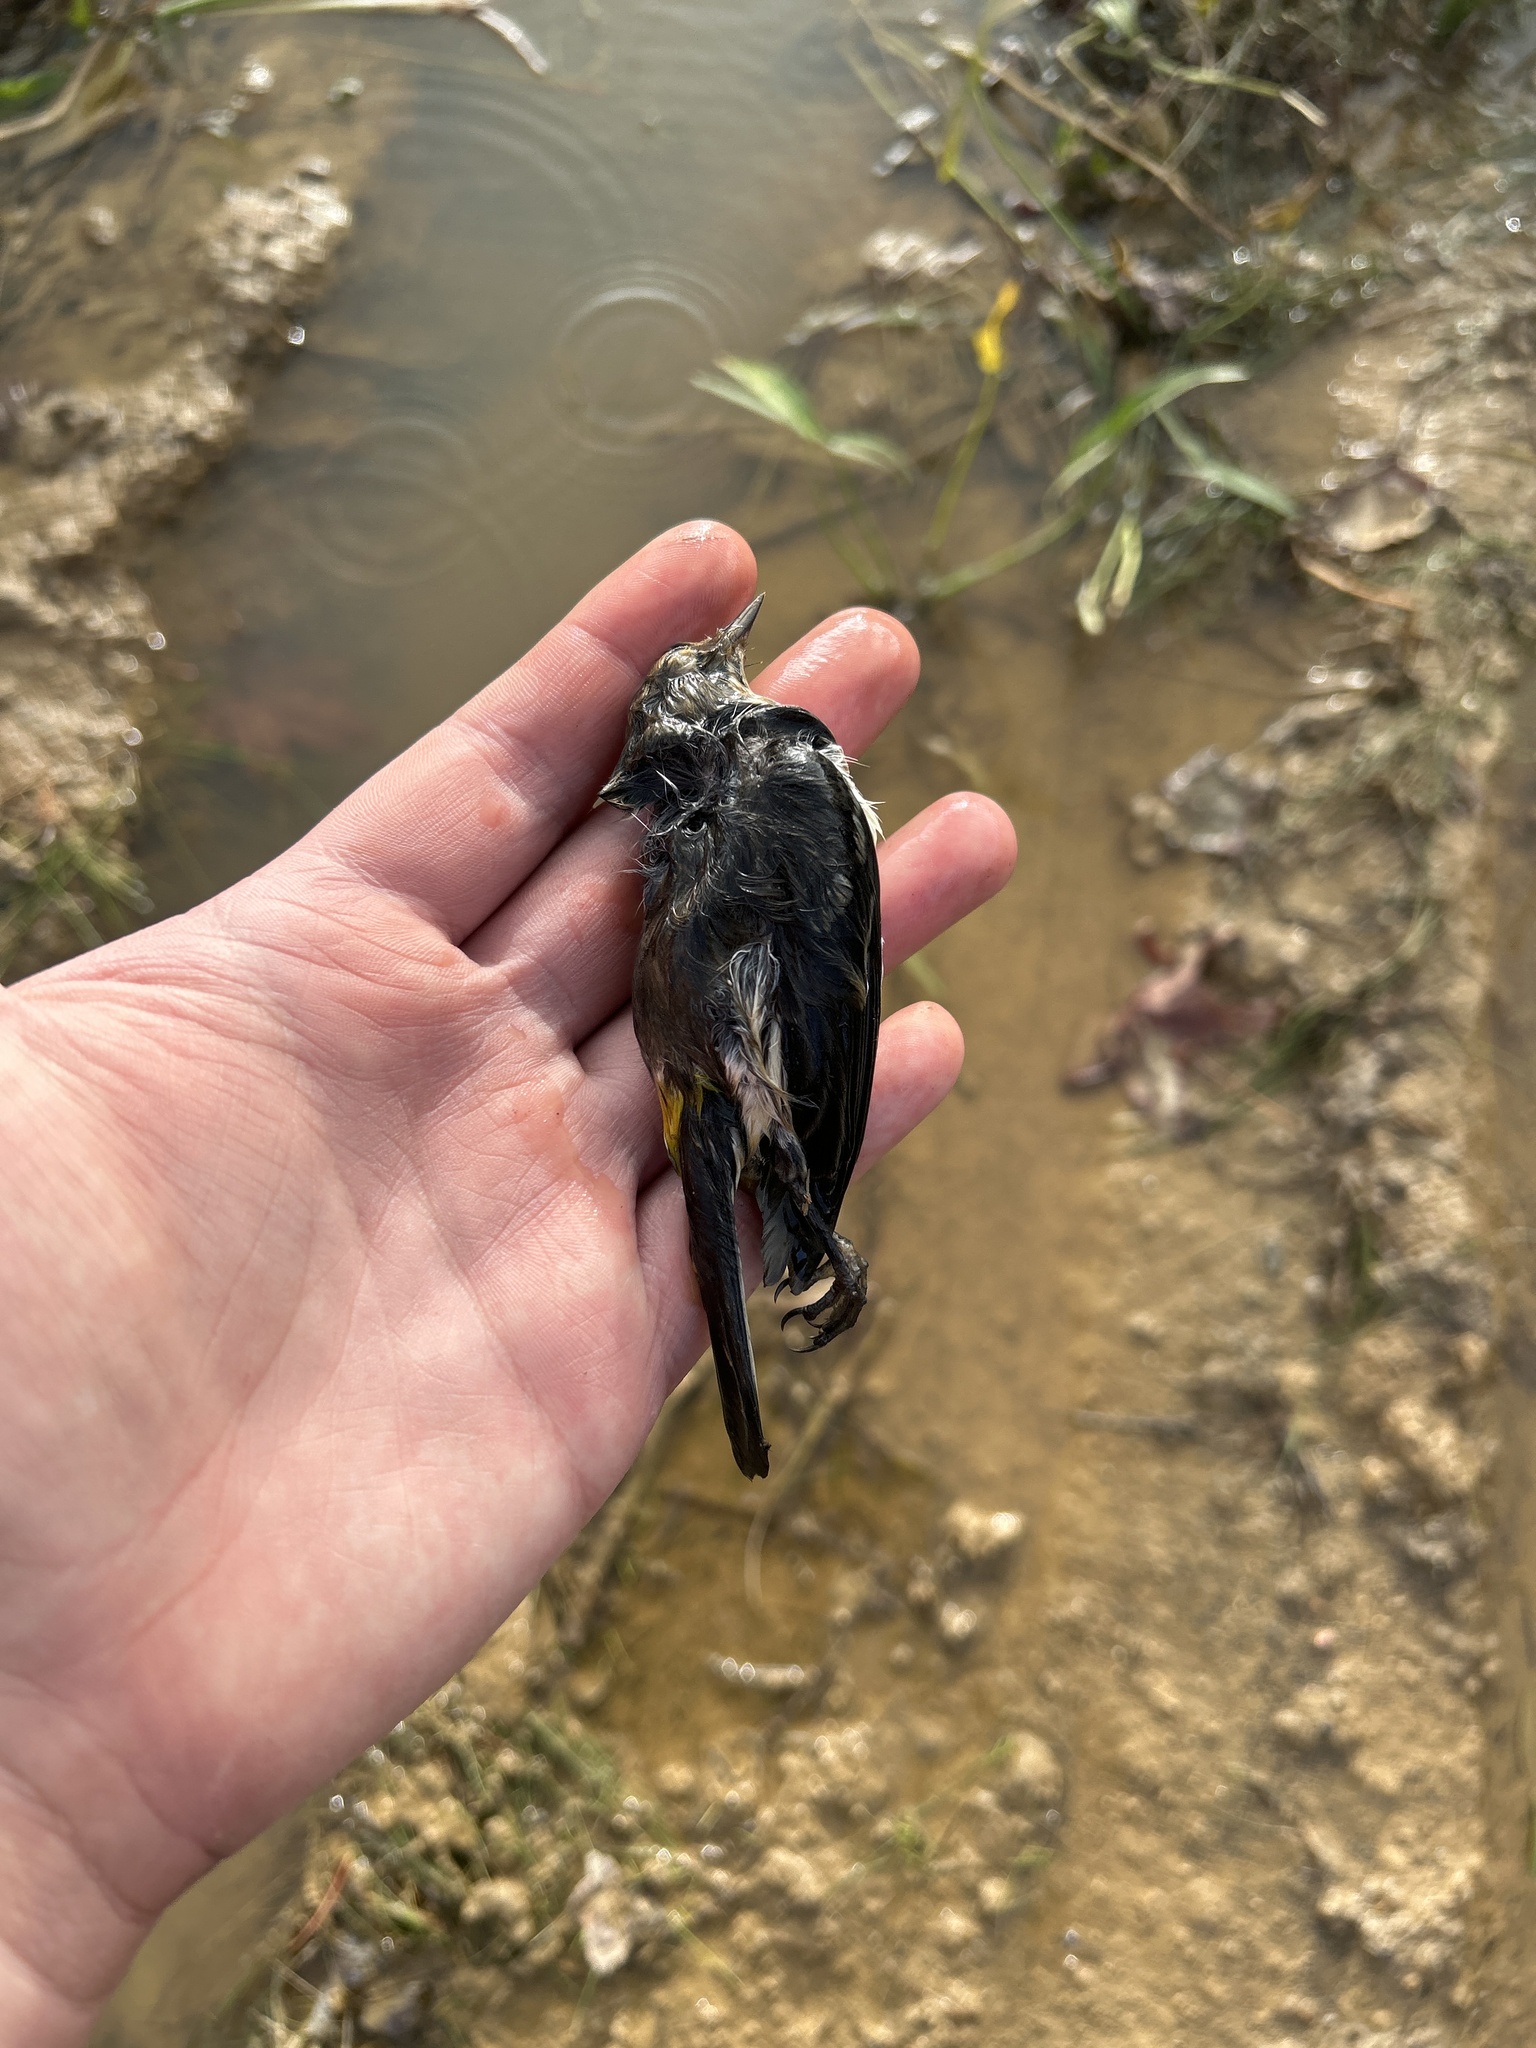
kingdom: Animalia
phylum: Chordata
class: Aves
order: Passeriformes
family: Parulidae
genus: Setophaga
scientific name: Setophaga coronata
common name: Myrtle warbler
